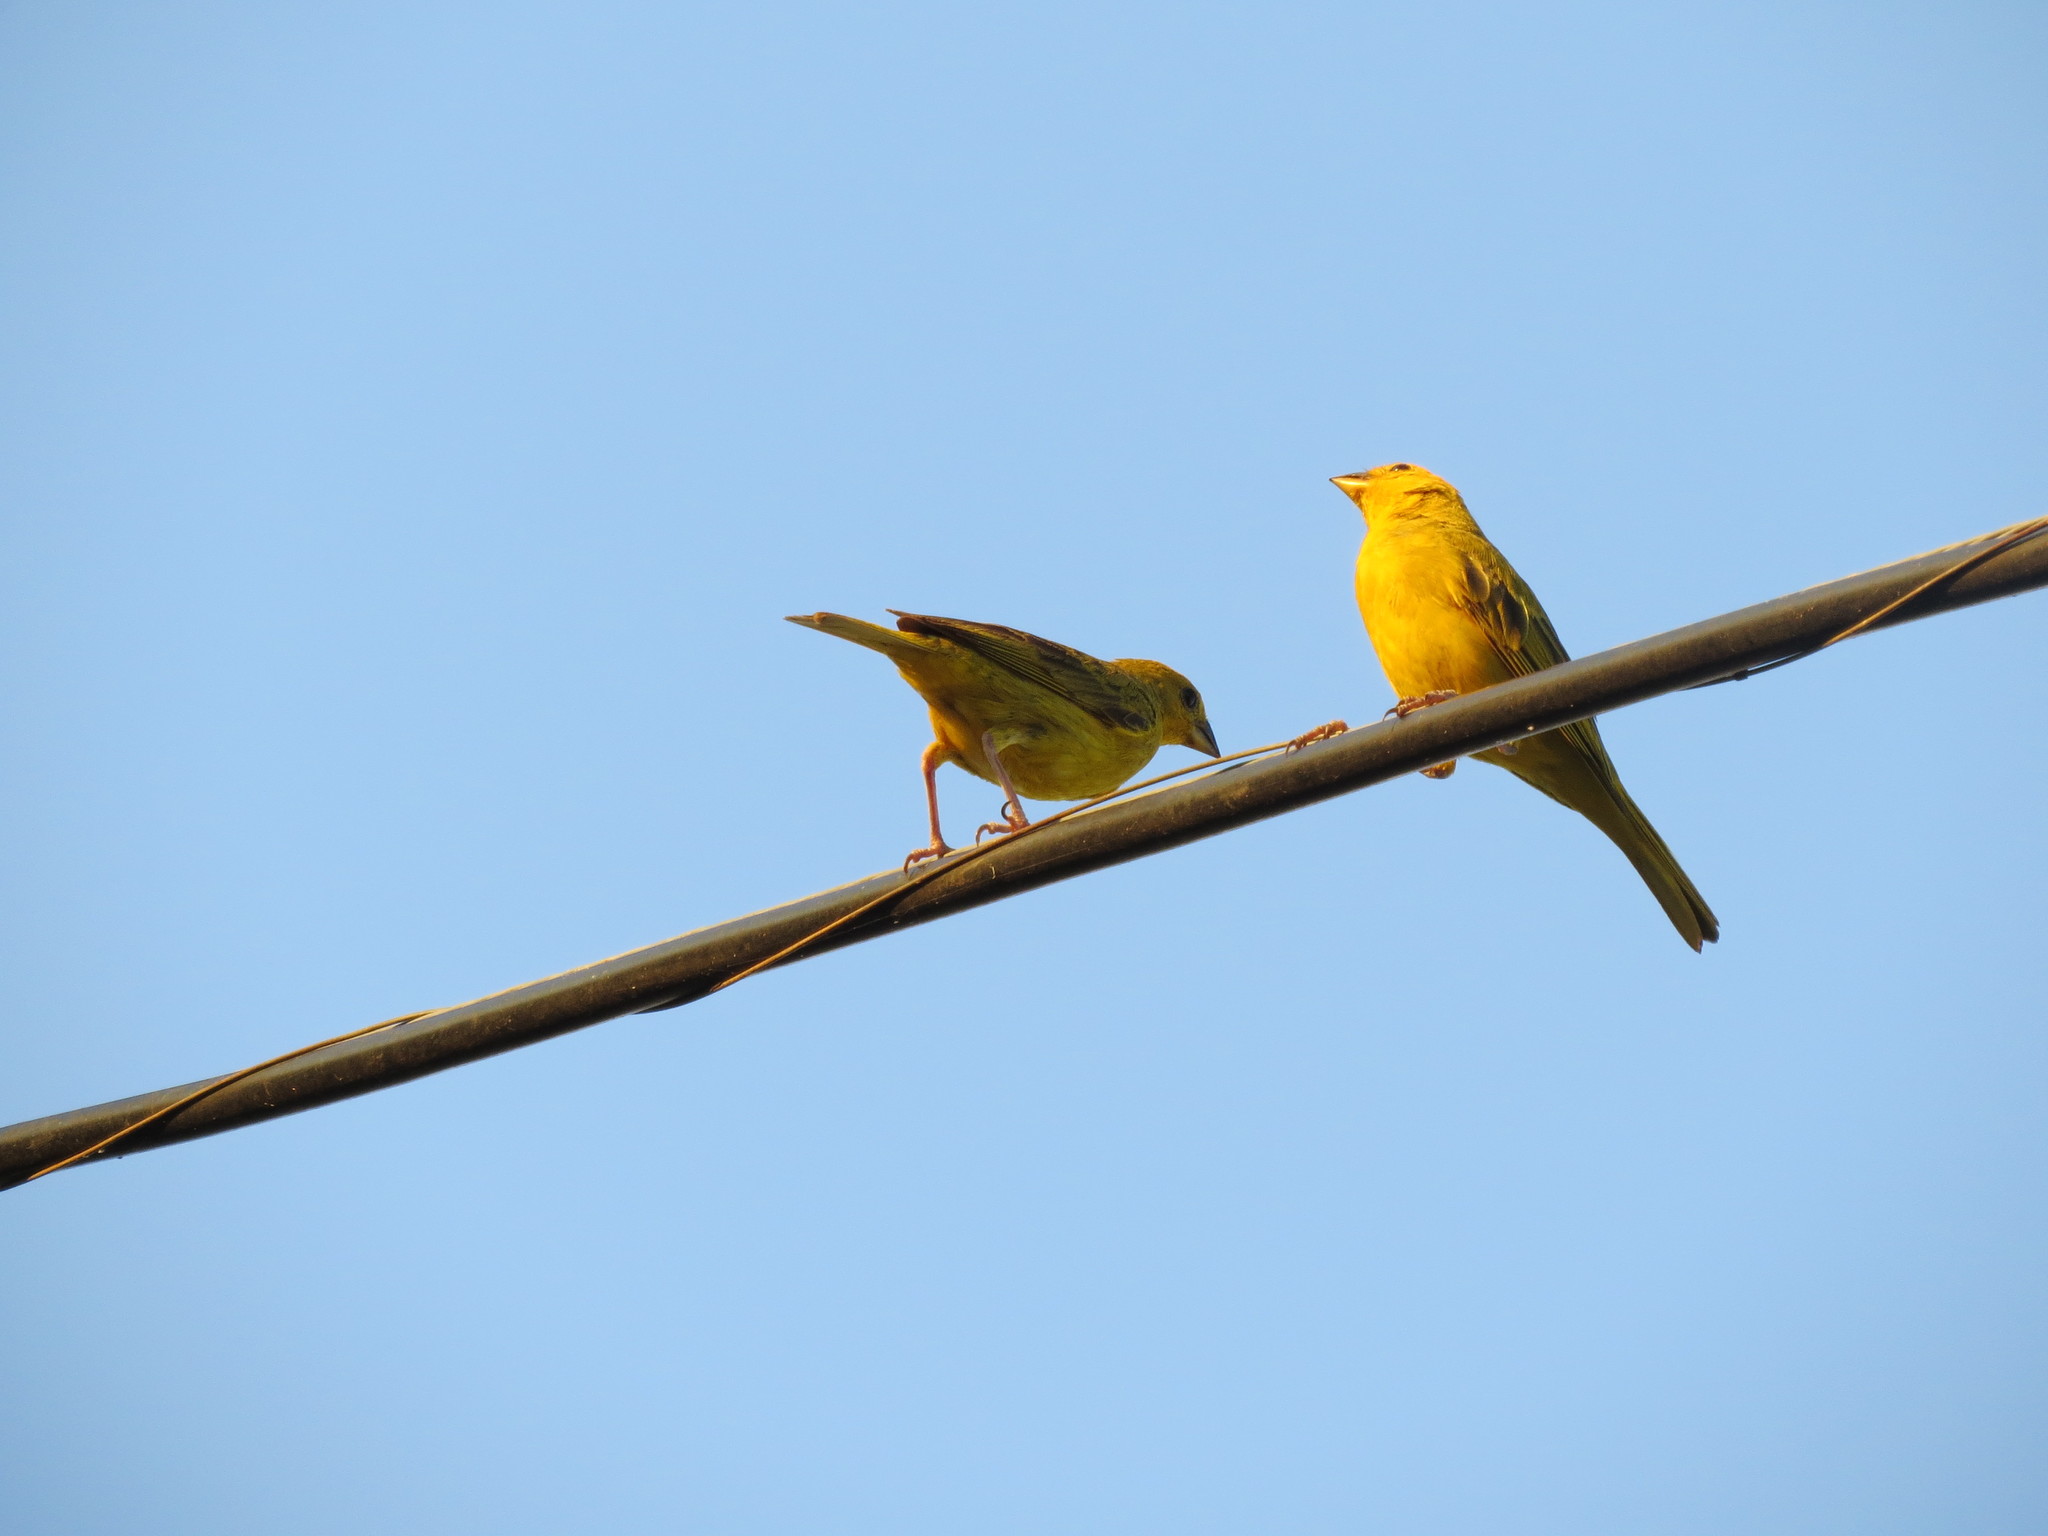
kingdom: Animalia
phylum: Chordata
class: Aves
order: Passeriformes
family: Thraupidae
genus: Sicalis
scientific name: Sicalis flaveola
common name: Saffron finch
